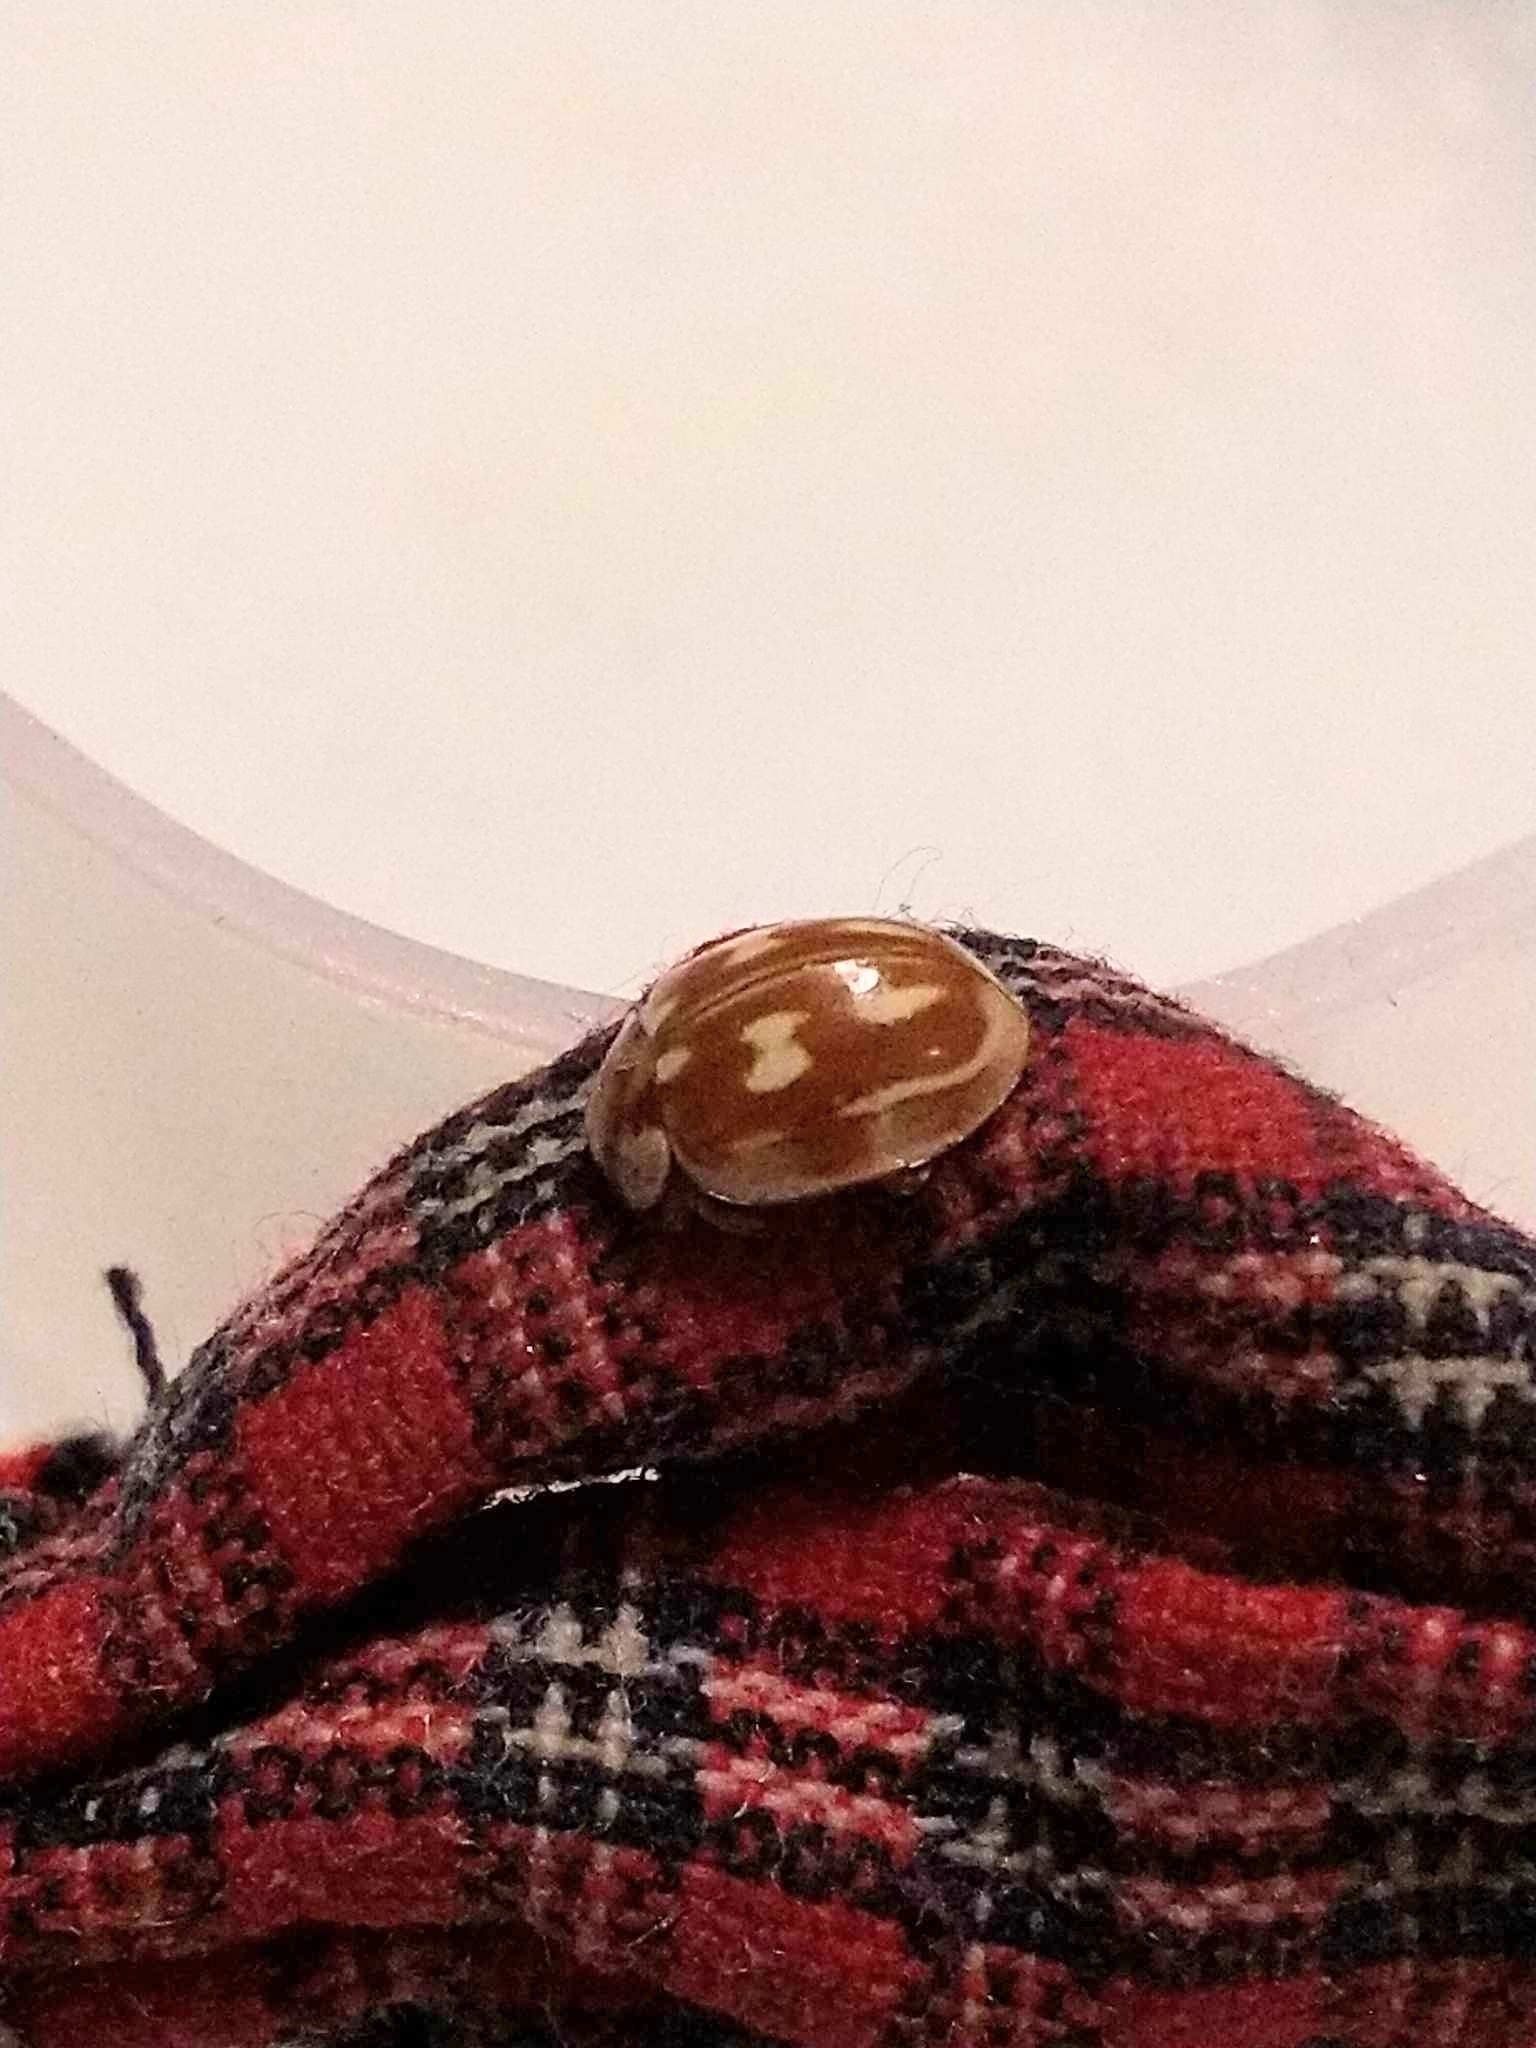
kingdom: Animalia
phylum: Arthropoda
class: Insecta
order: Coleoptera
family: Coccinellidae
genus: Myzia
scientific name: Myzia oblongoguttata
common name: Striped ladybird
